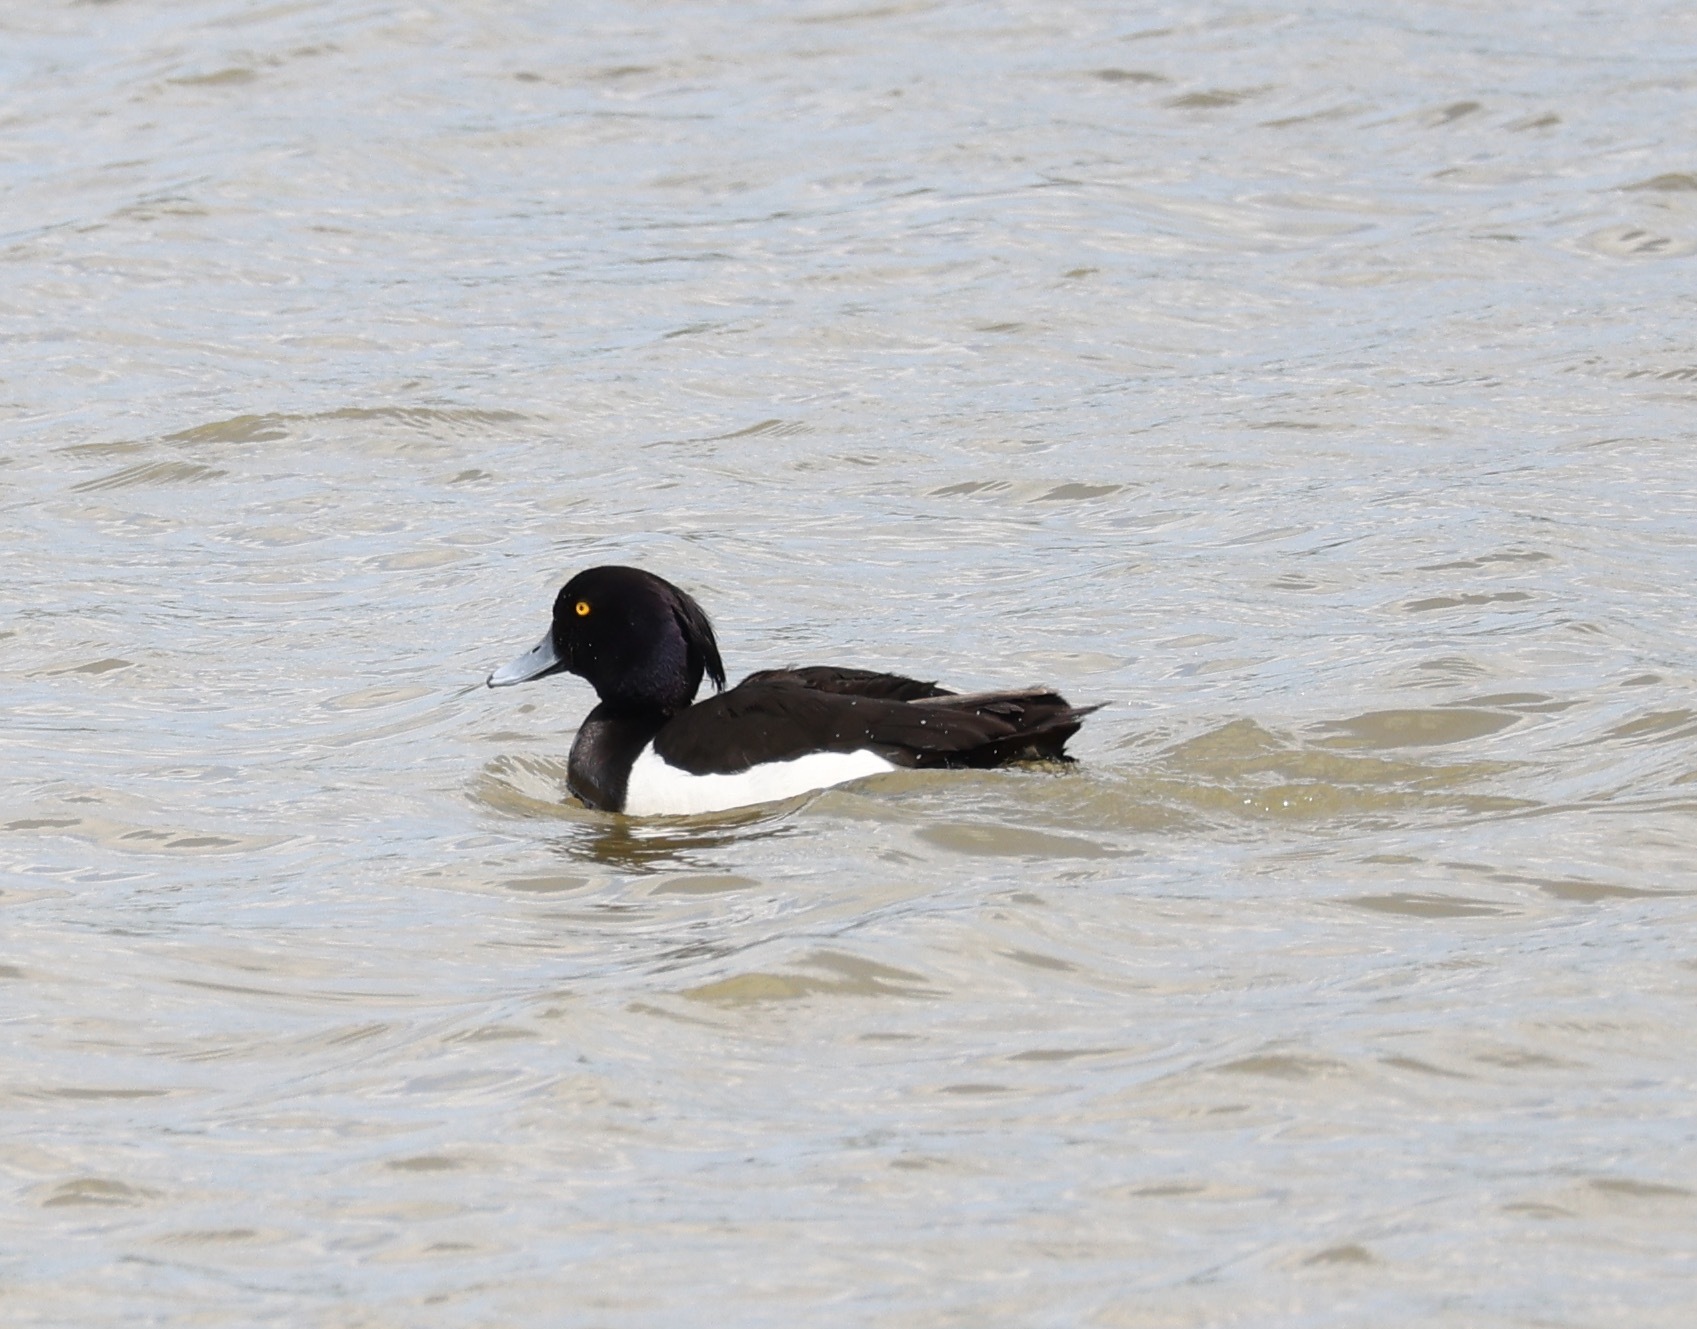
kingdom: Animalia
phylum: Chordata
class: Aves
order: Anseriformes
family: Anatidae
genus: Aythya
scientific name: Aythya fuligula
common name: Tufted duck
